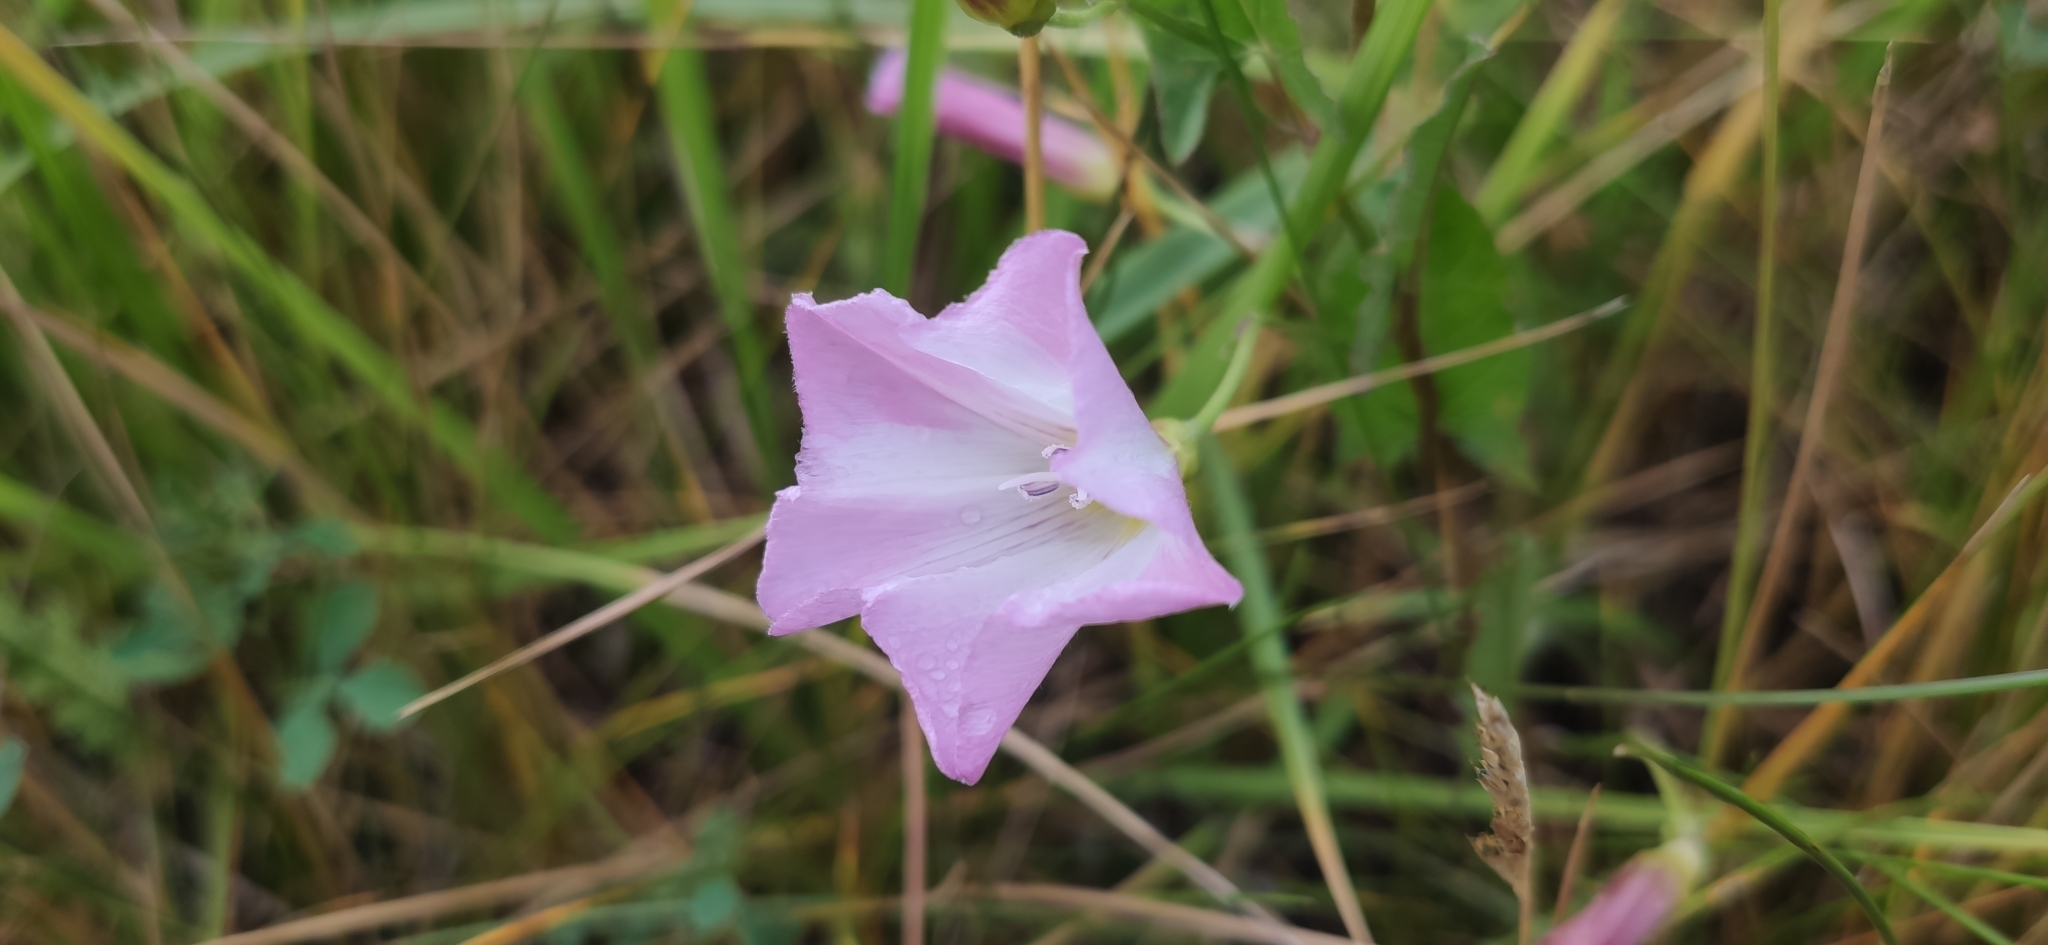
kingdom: Plantae
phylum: Tracheophyta
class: Magnoliopsida
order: Solanales
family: Convolvulaceae
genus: Convolvulus
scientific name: Convolvulus arvensis
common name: Field bindweed
